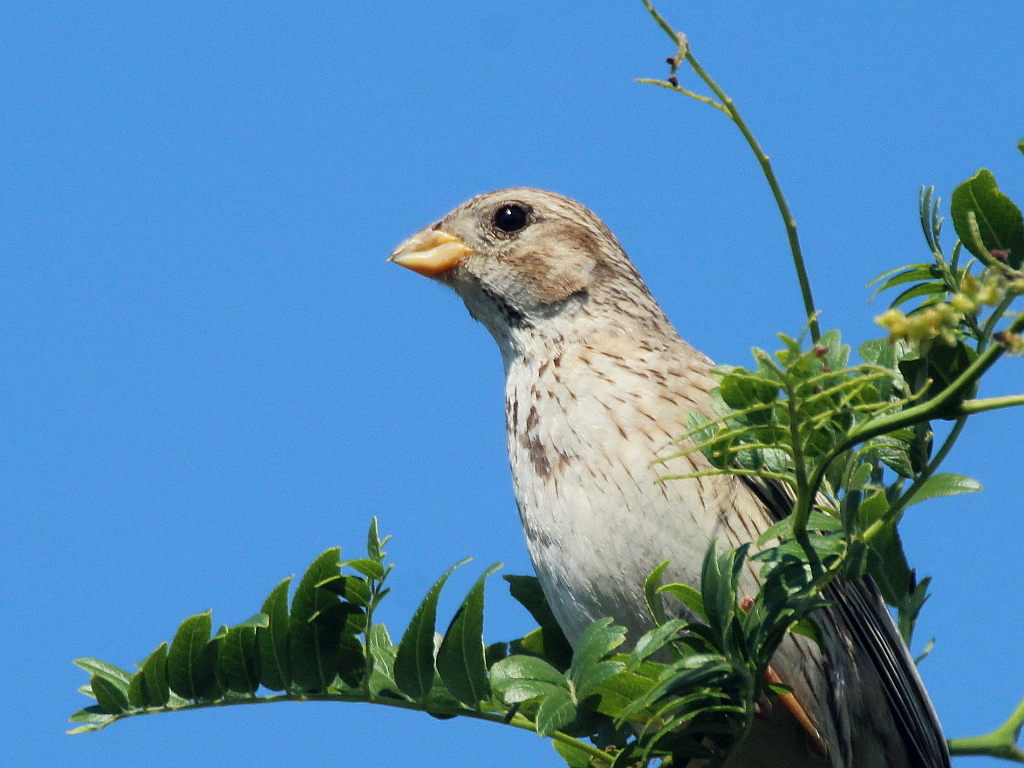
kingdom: Animalia
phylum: Chordata
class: Aves
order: Passeriformes
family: Emberizidae
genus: Emberiza
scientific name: Emberiza calandra
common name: Corn bunting
